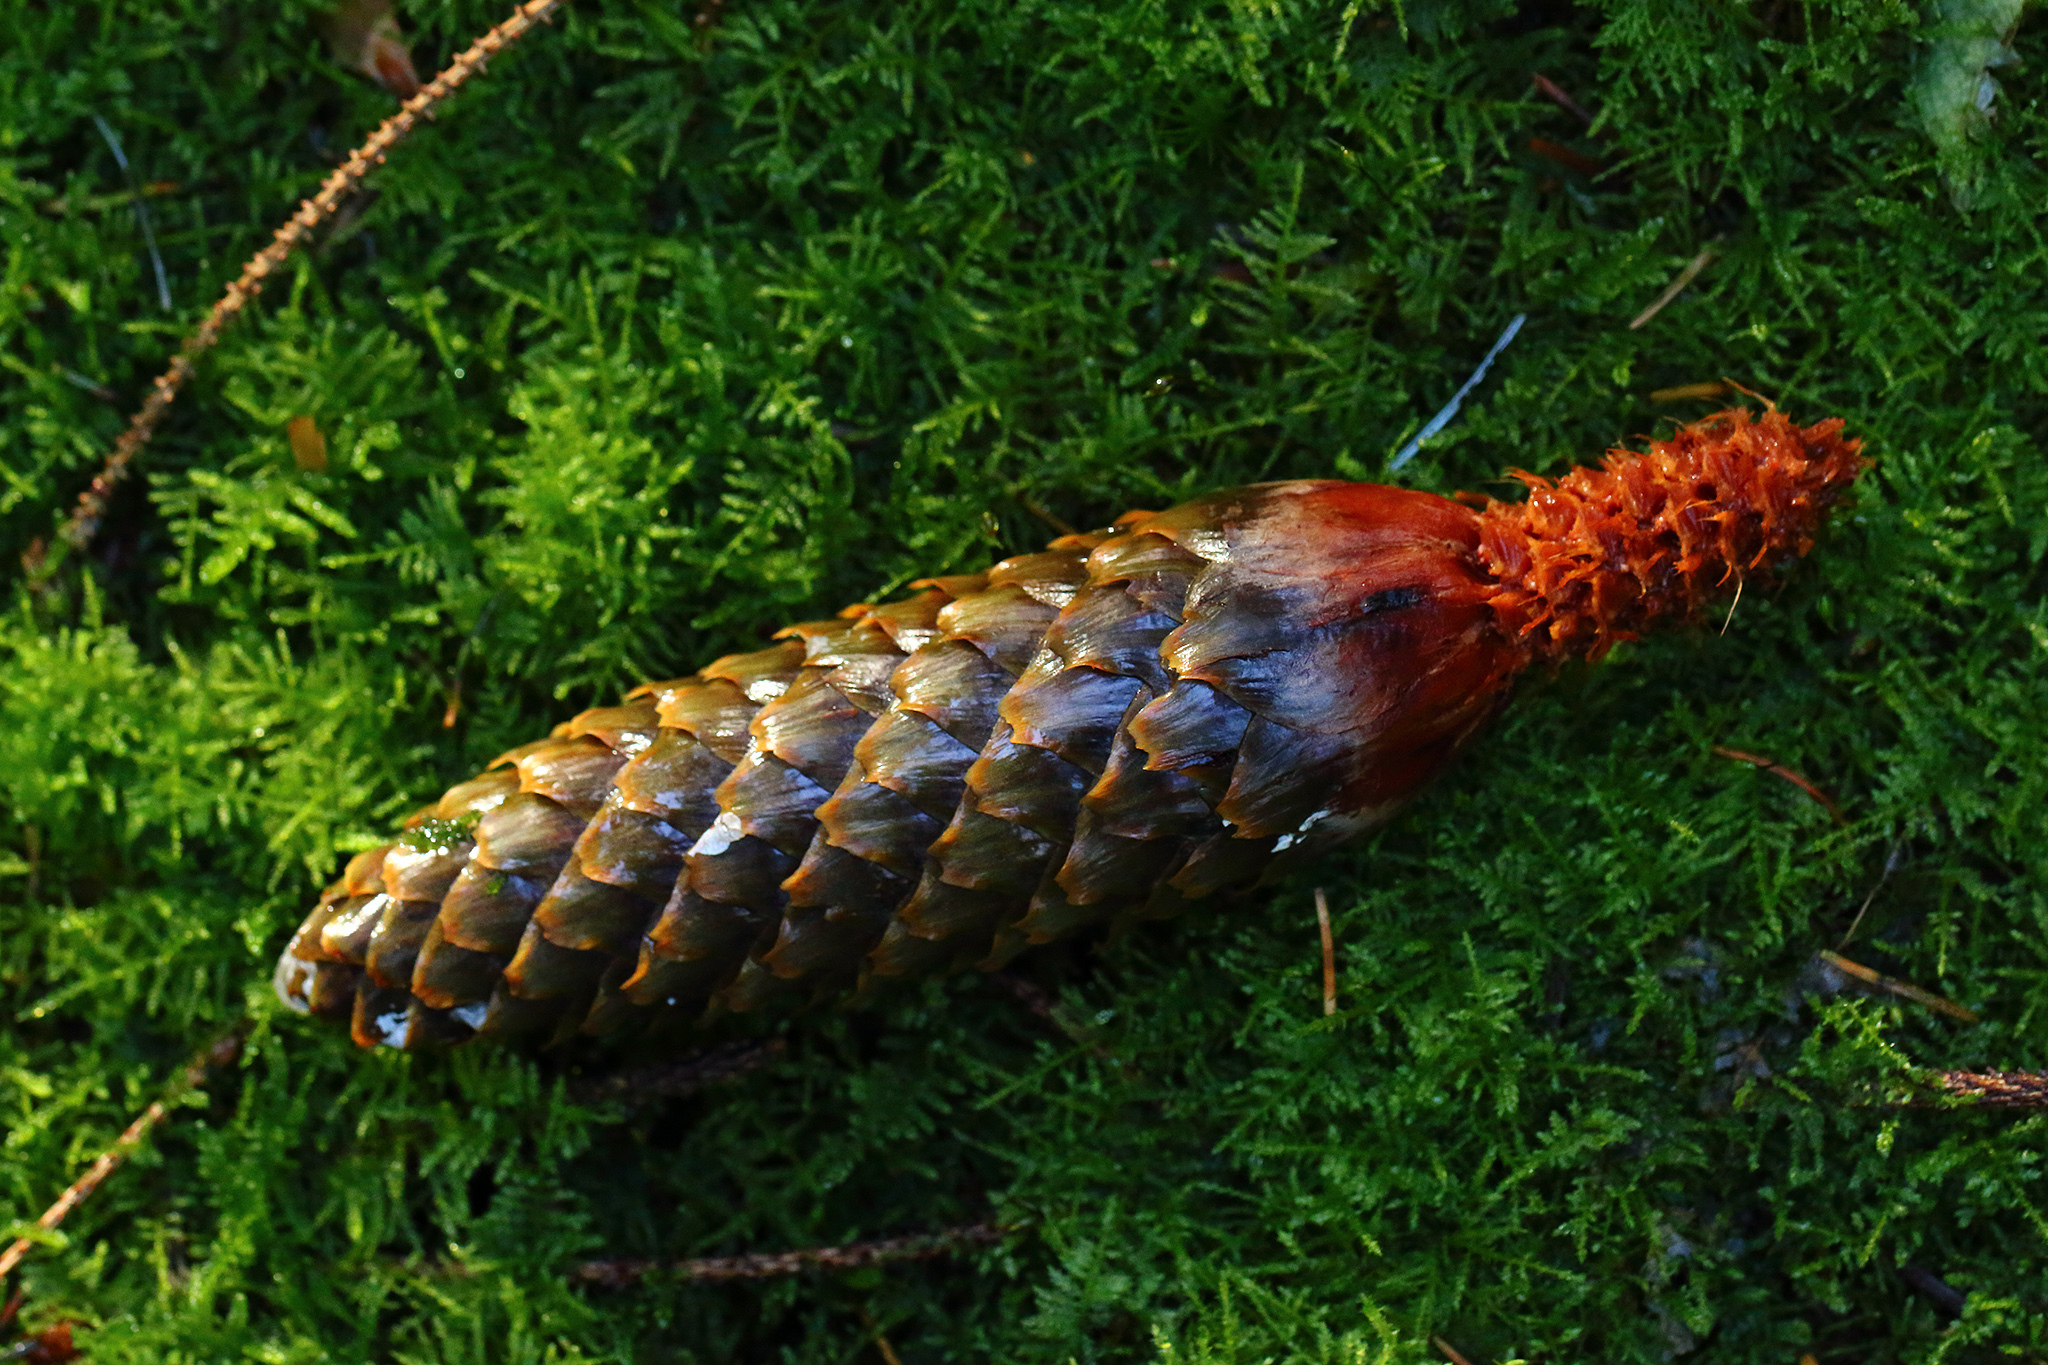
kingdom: Plantae
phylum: Tracheophyta
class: Pinopsida
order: Pinales
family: Pinaceae
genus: Picea
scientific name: Picea abies
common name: Norway spruce
